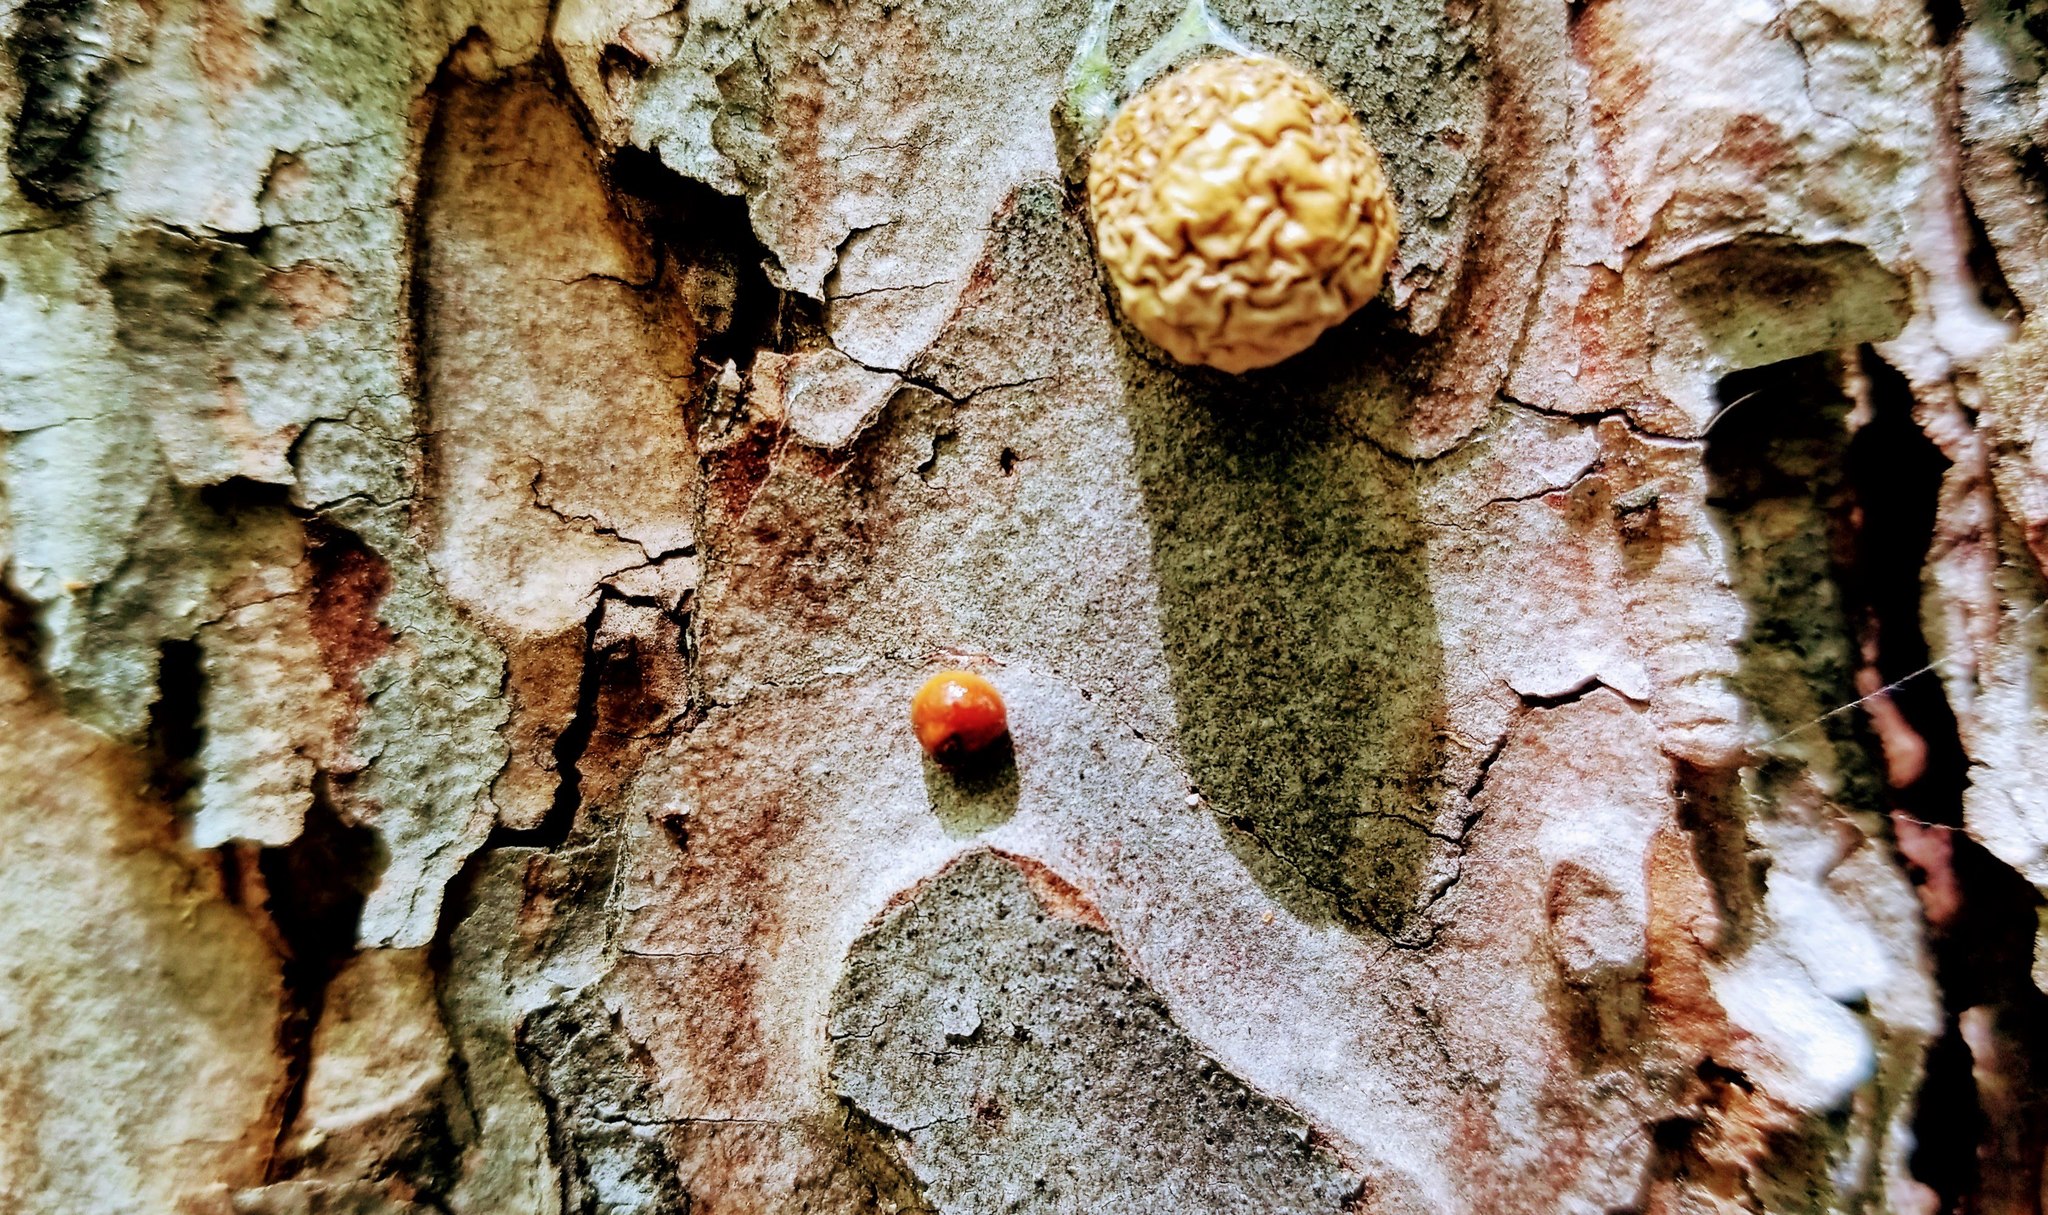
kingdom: Fungi
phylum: Basidiomycota
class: Agaricomycetes
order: Polyporales
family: Polyporaceae
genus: Cryptoporus
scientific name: Cryptoporus volvatus
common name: Veiled polypore
